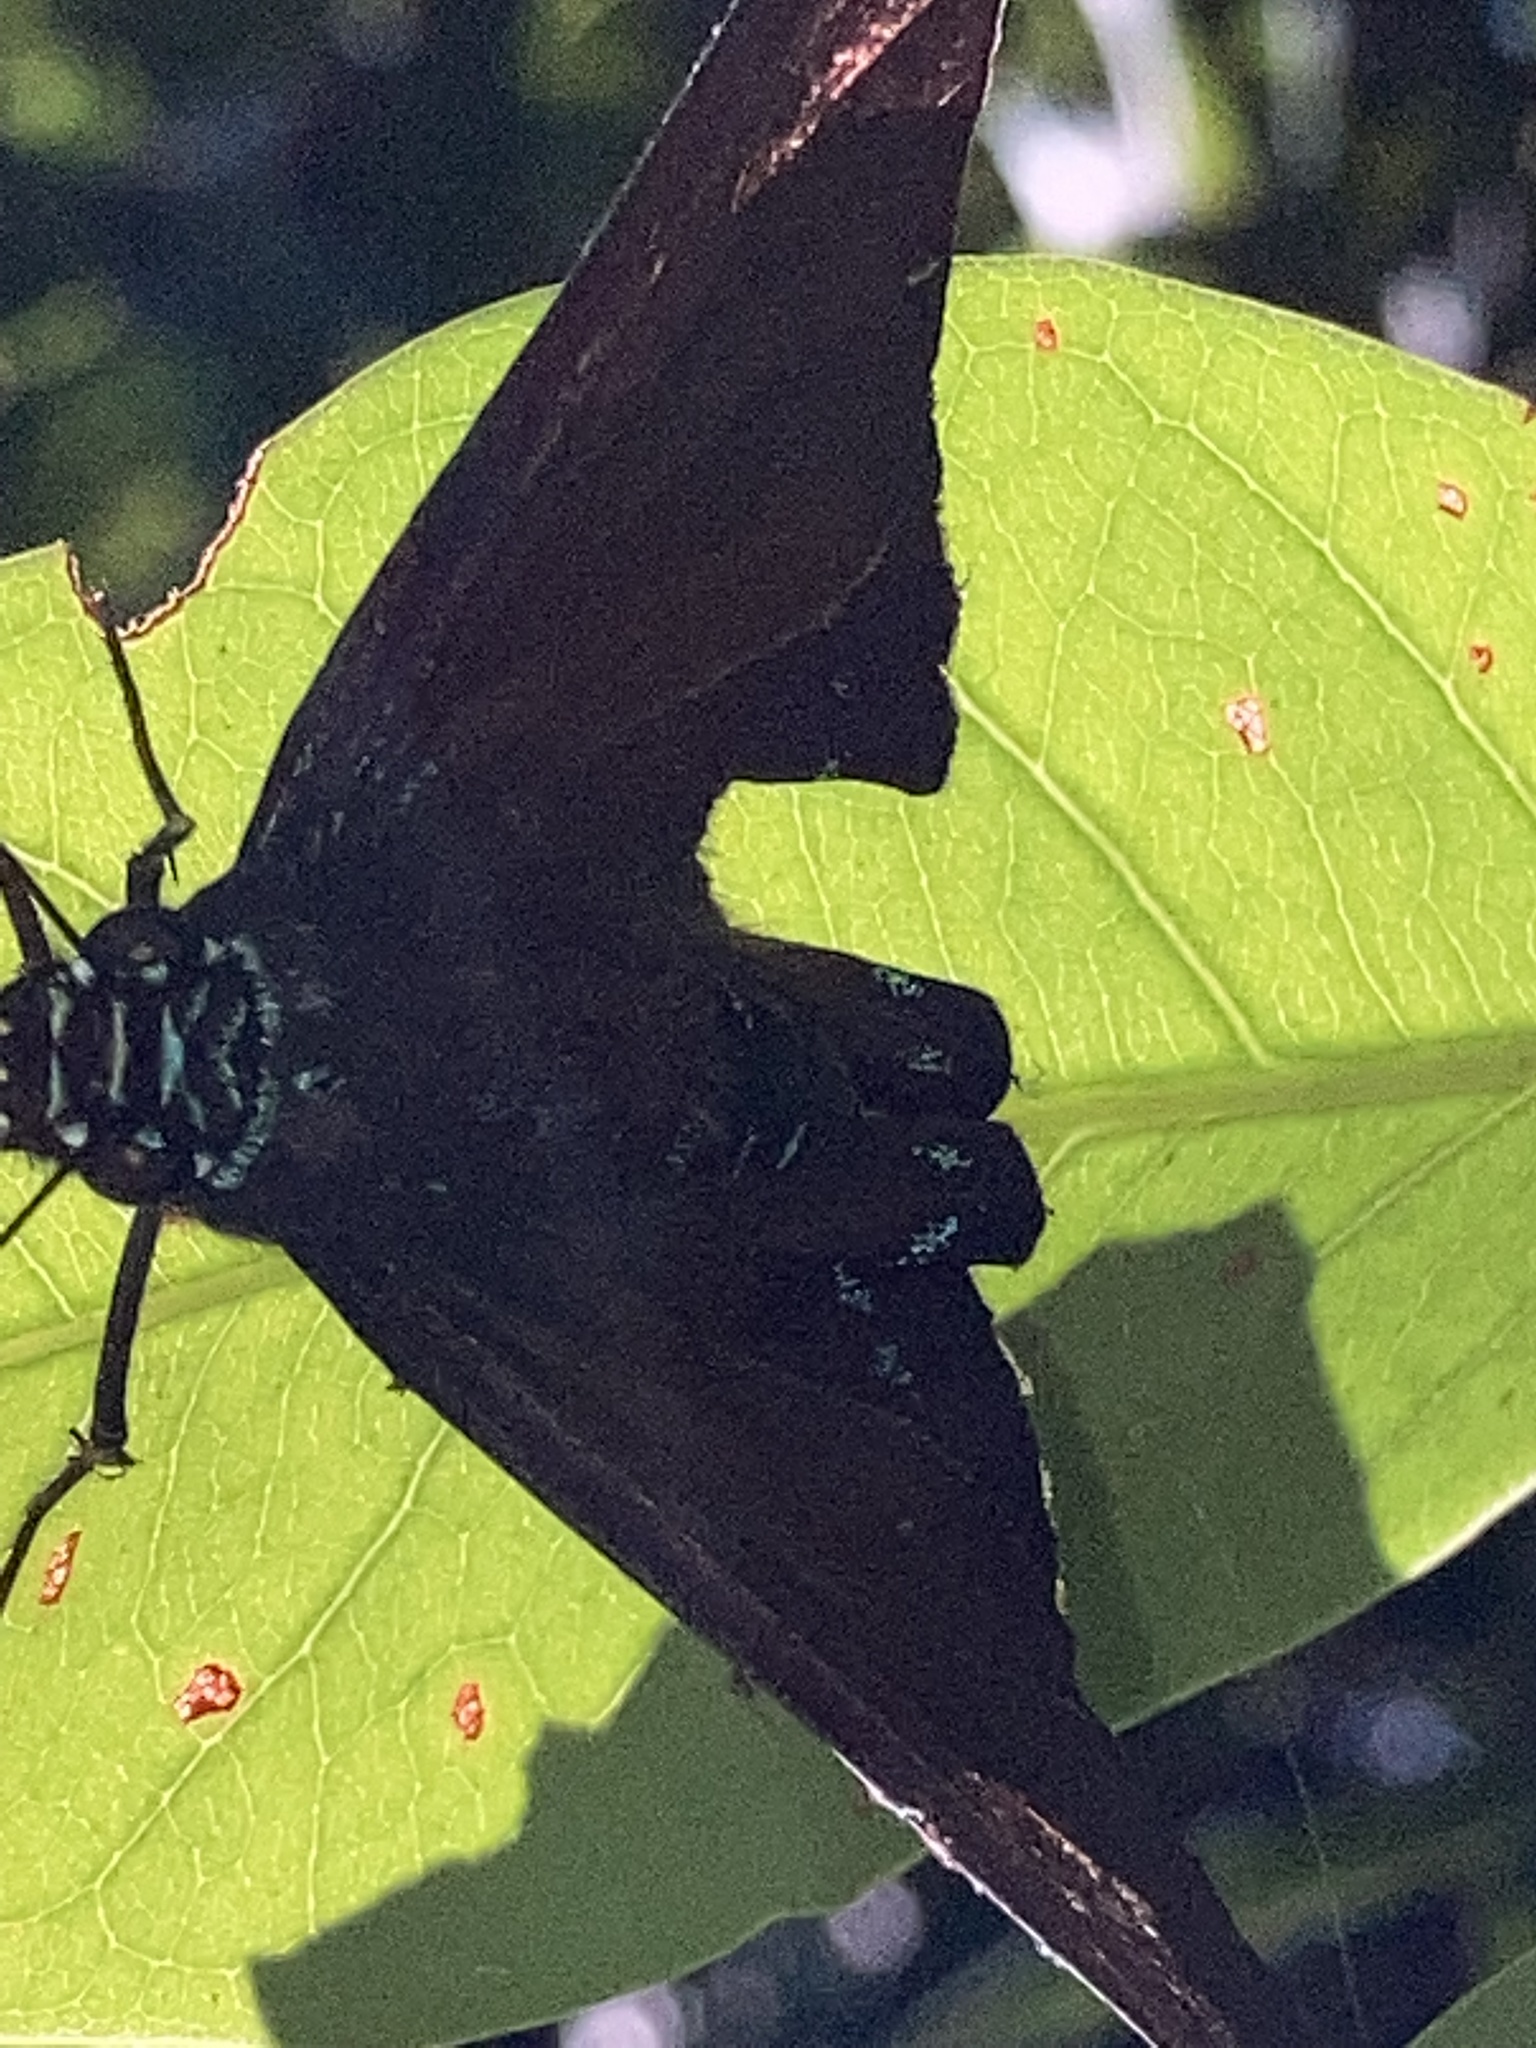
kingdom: Animalia
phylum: Arthropoda
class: Insecta
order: Lepidoptera
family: Hesperiidae
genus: Phocides
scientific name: Phocides pigmalion
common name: Mangrove skipper
